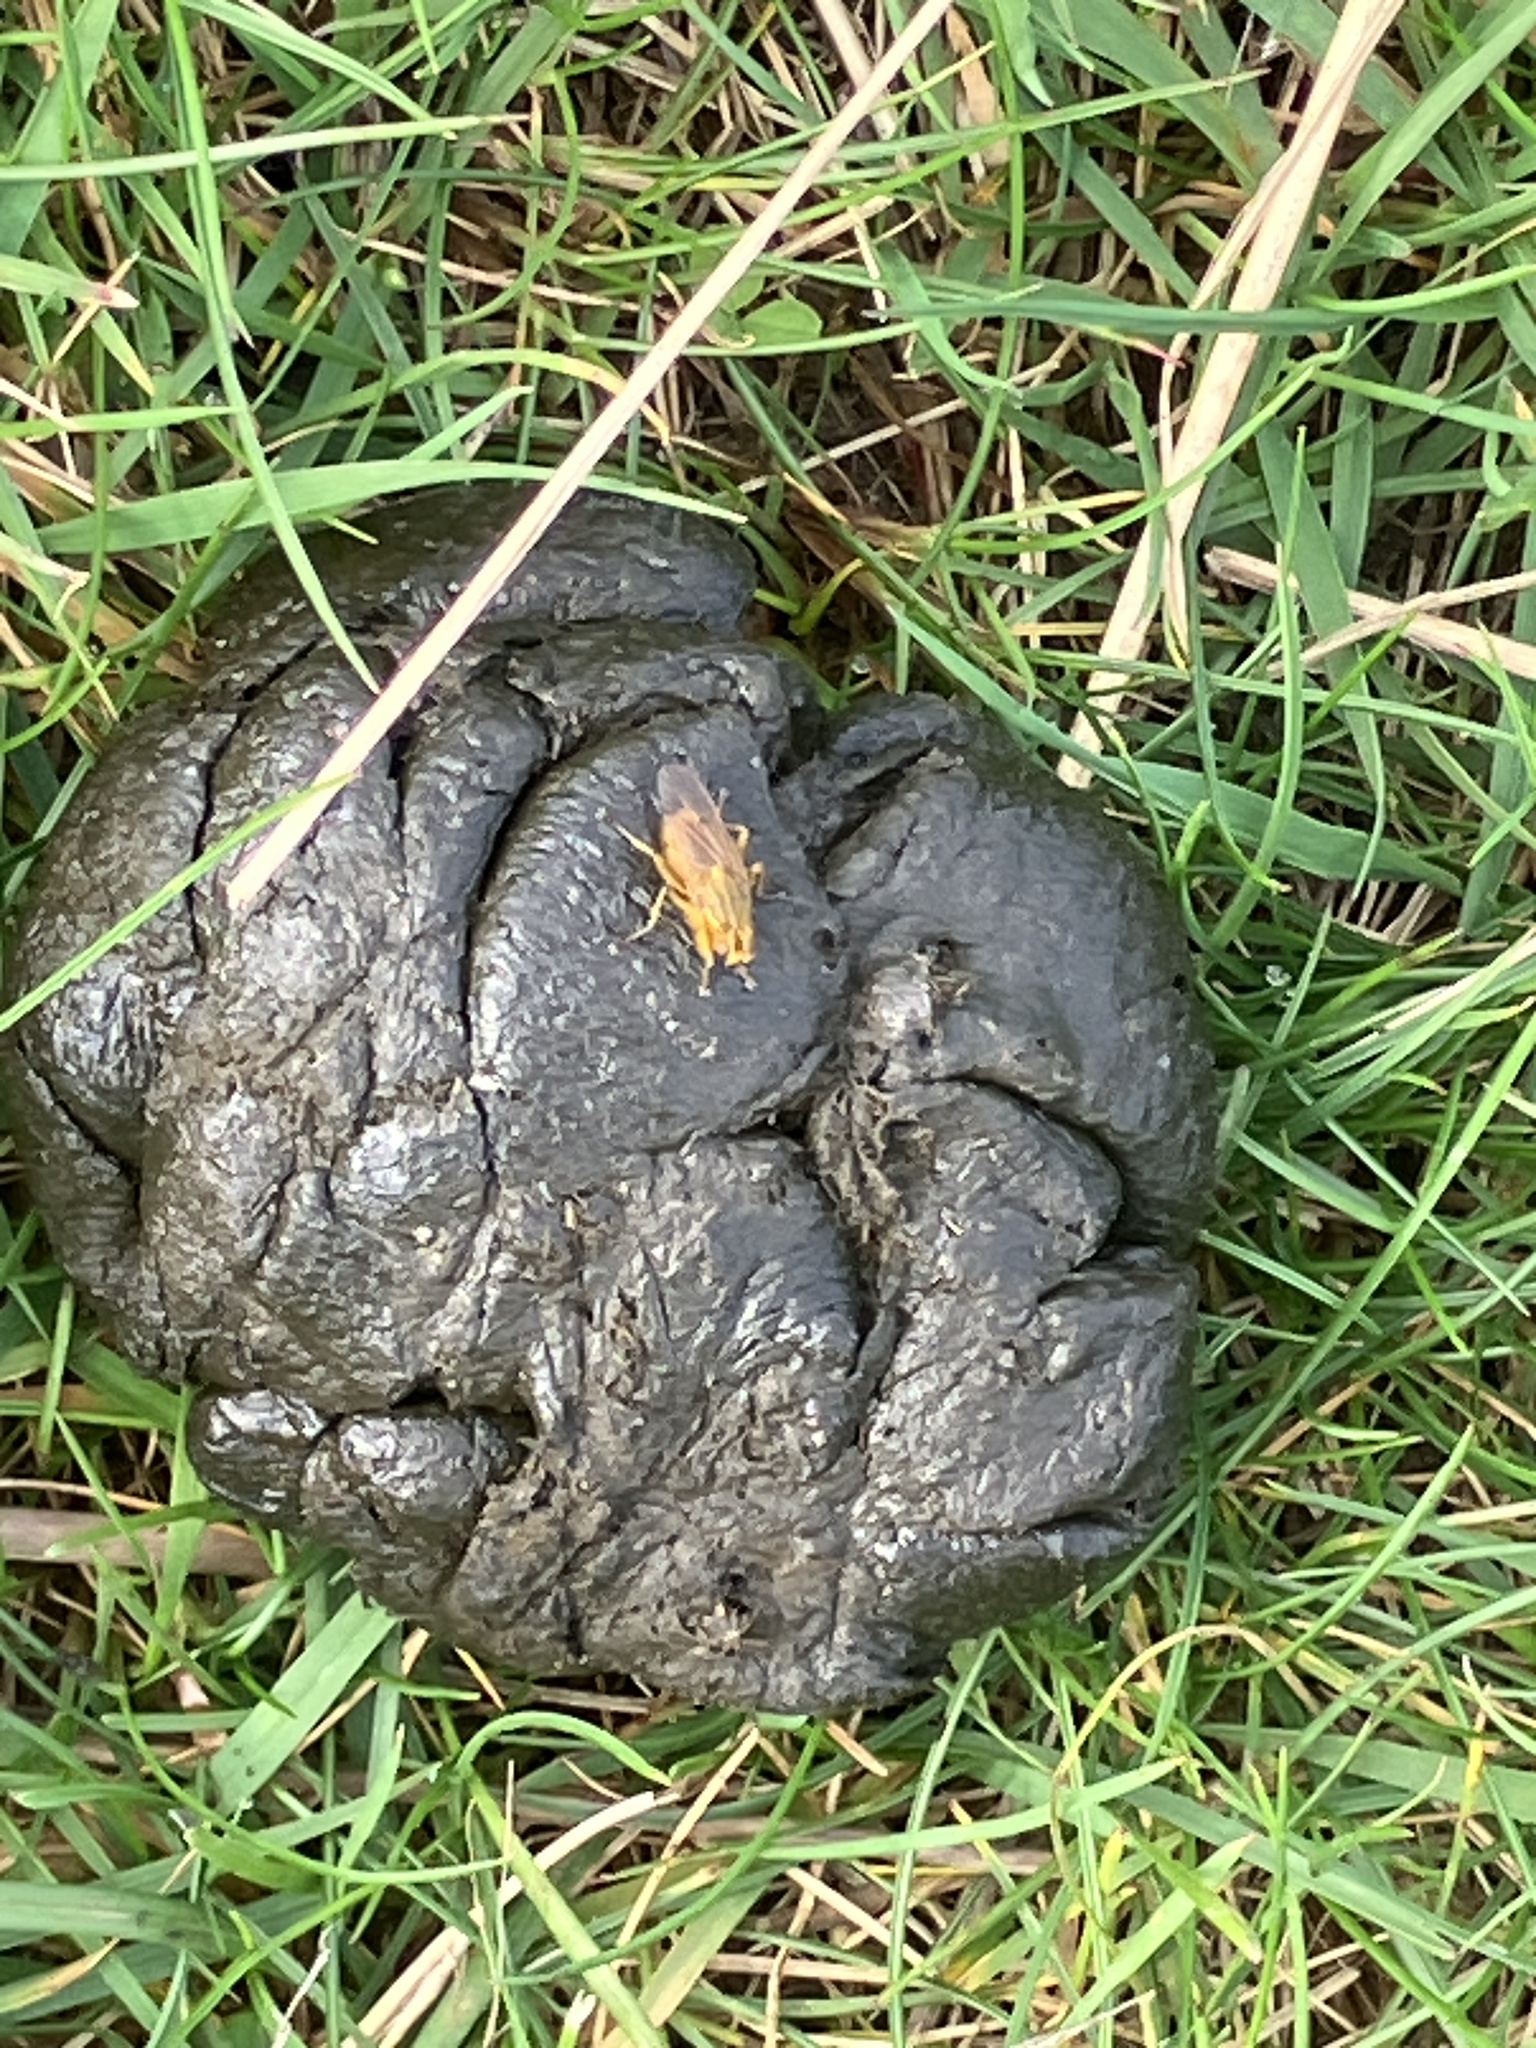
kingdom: Animalia
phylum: Arthropoda
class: Insecta
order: Diptera
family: Scathophagidae
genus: Scathophaga
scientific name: Scathophaga stercoraria
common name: Yellow dung fly
